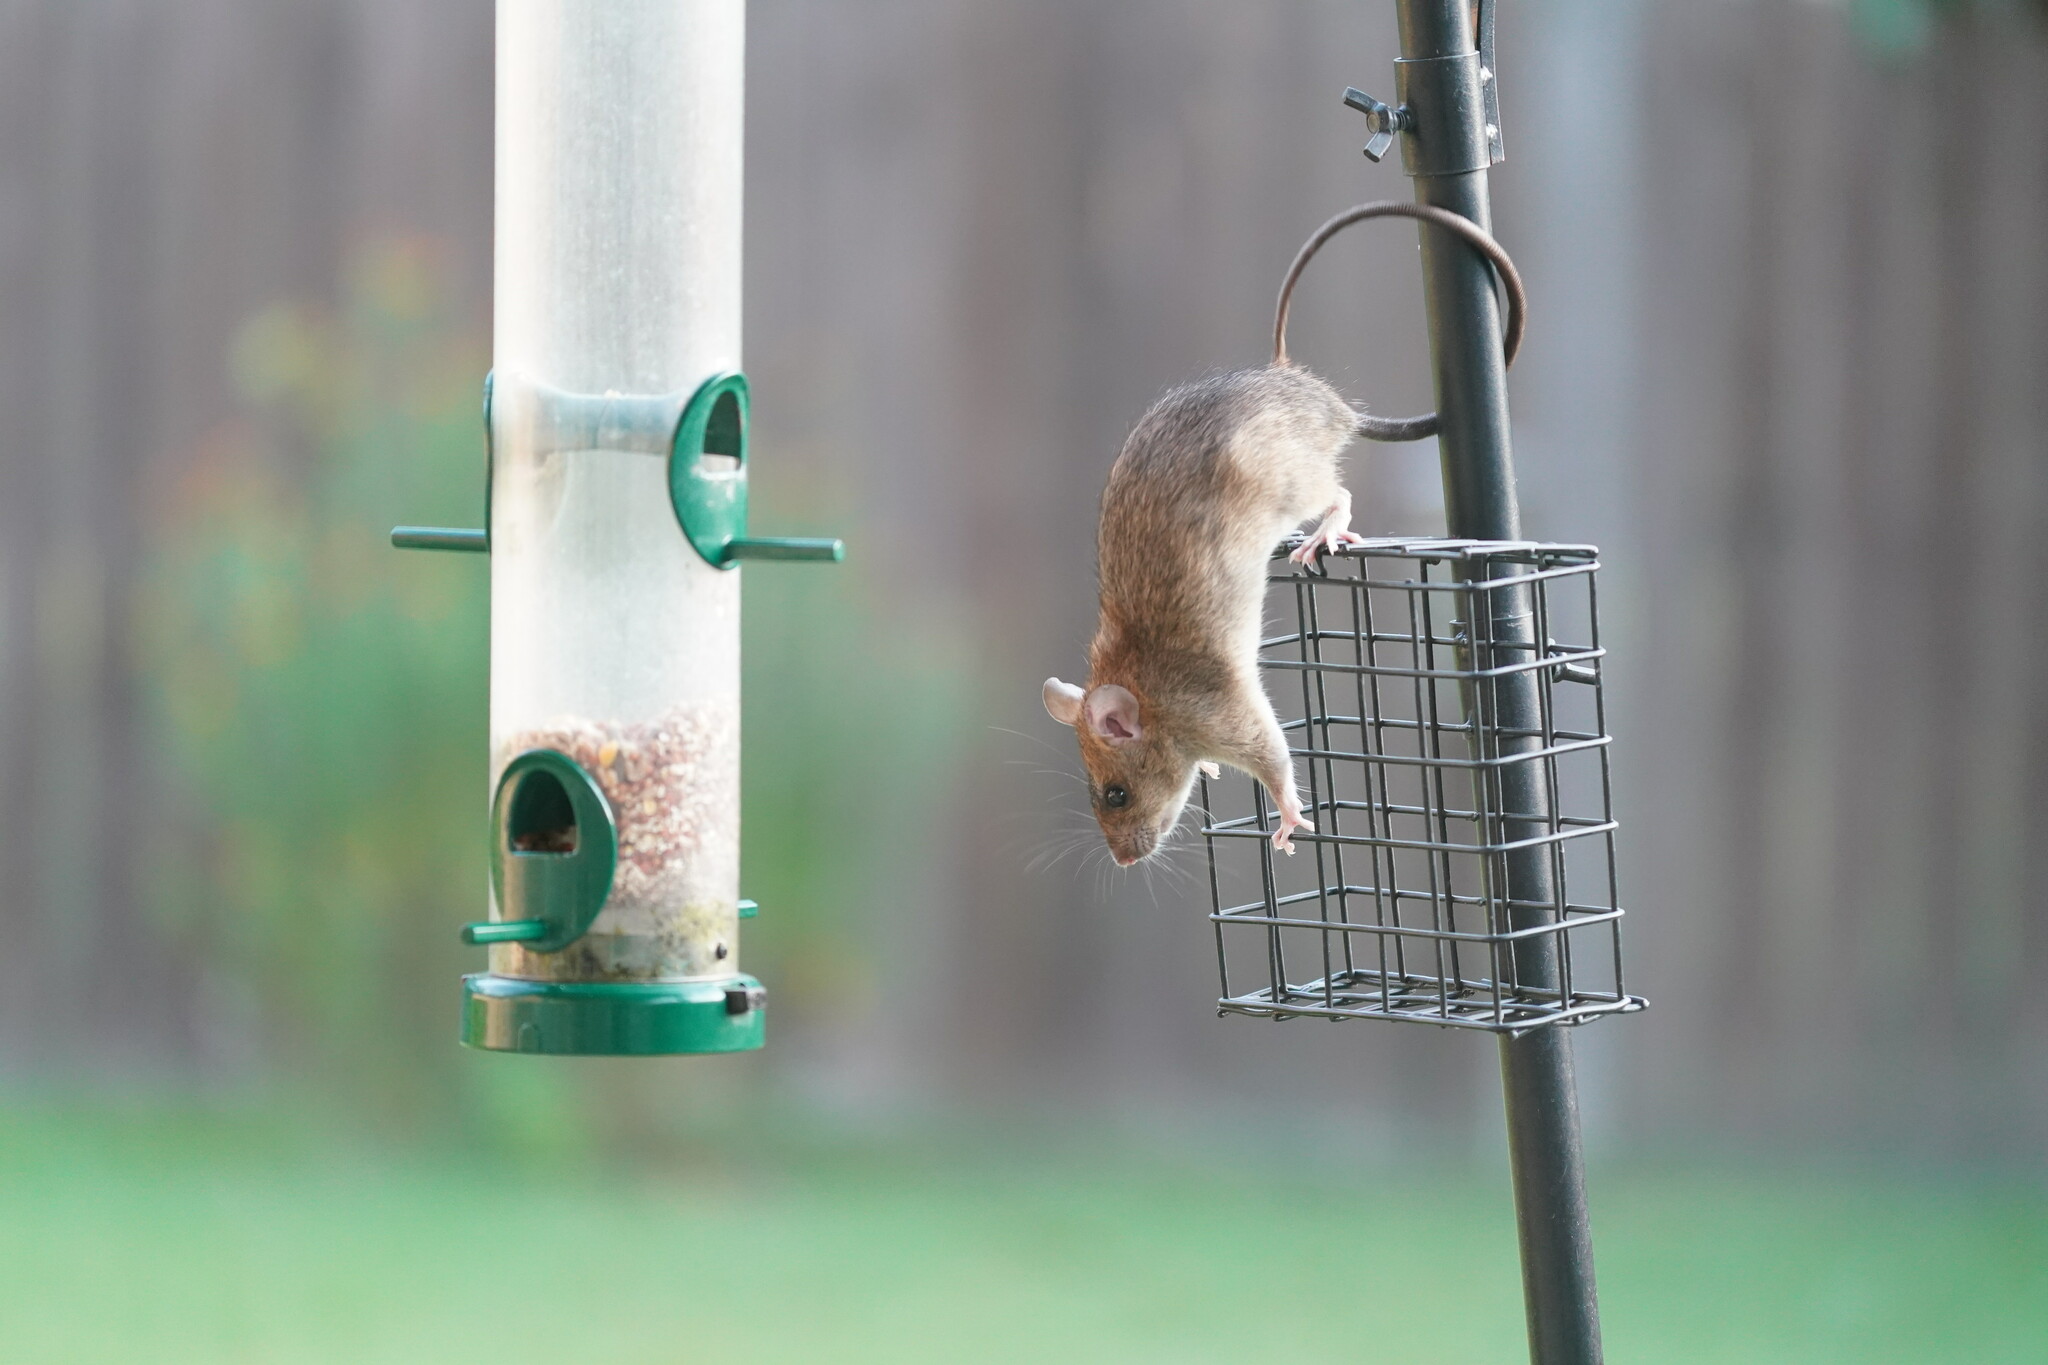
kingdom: Animalia
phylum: Chordata
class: Mammalia
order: Rodentia
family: Muridae
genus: Rattus
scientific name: Rattus rattus
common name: Black rat
